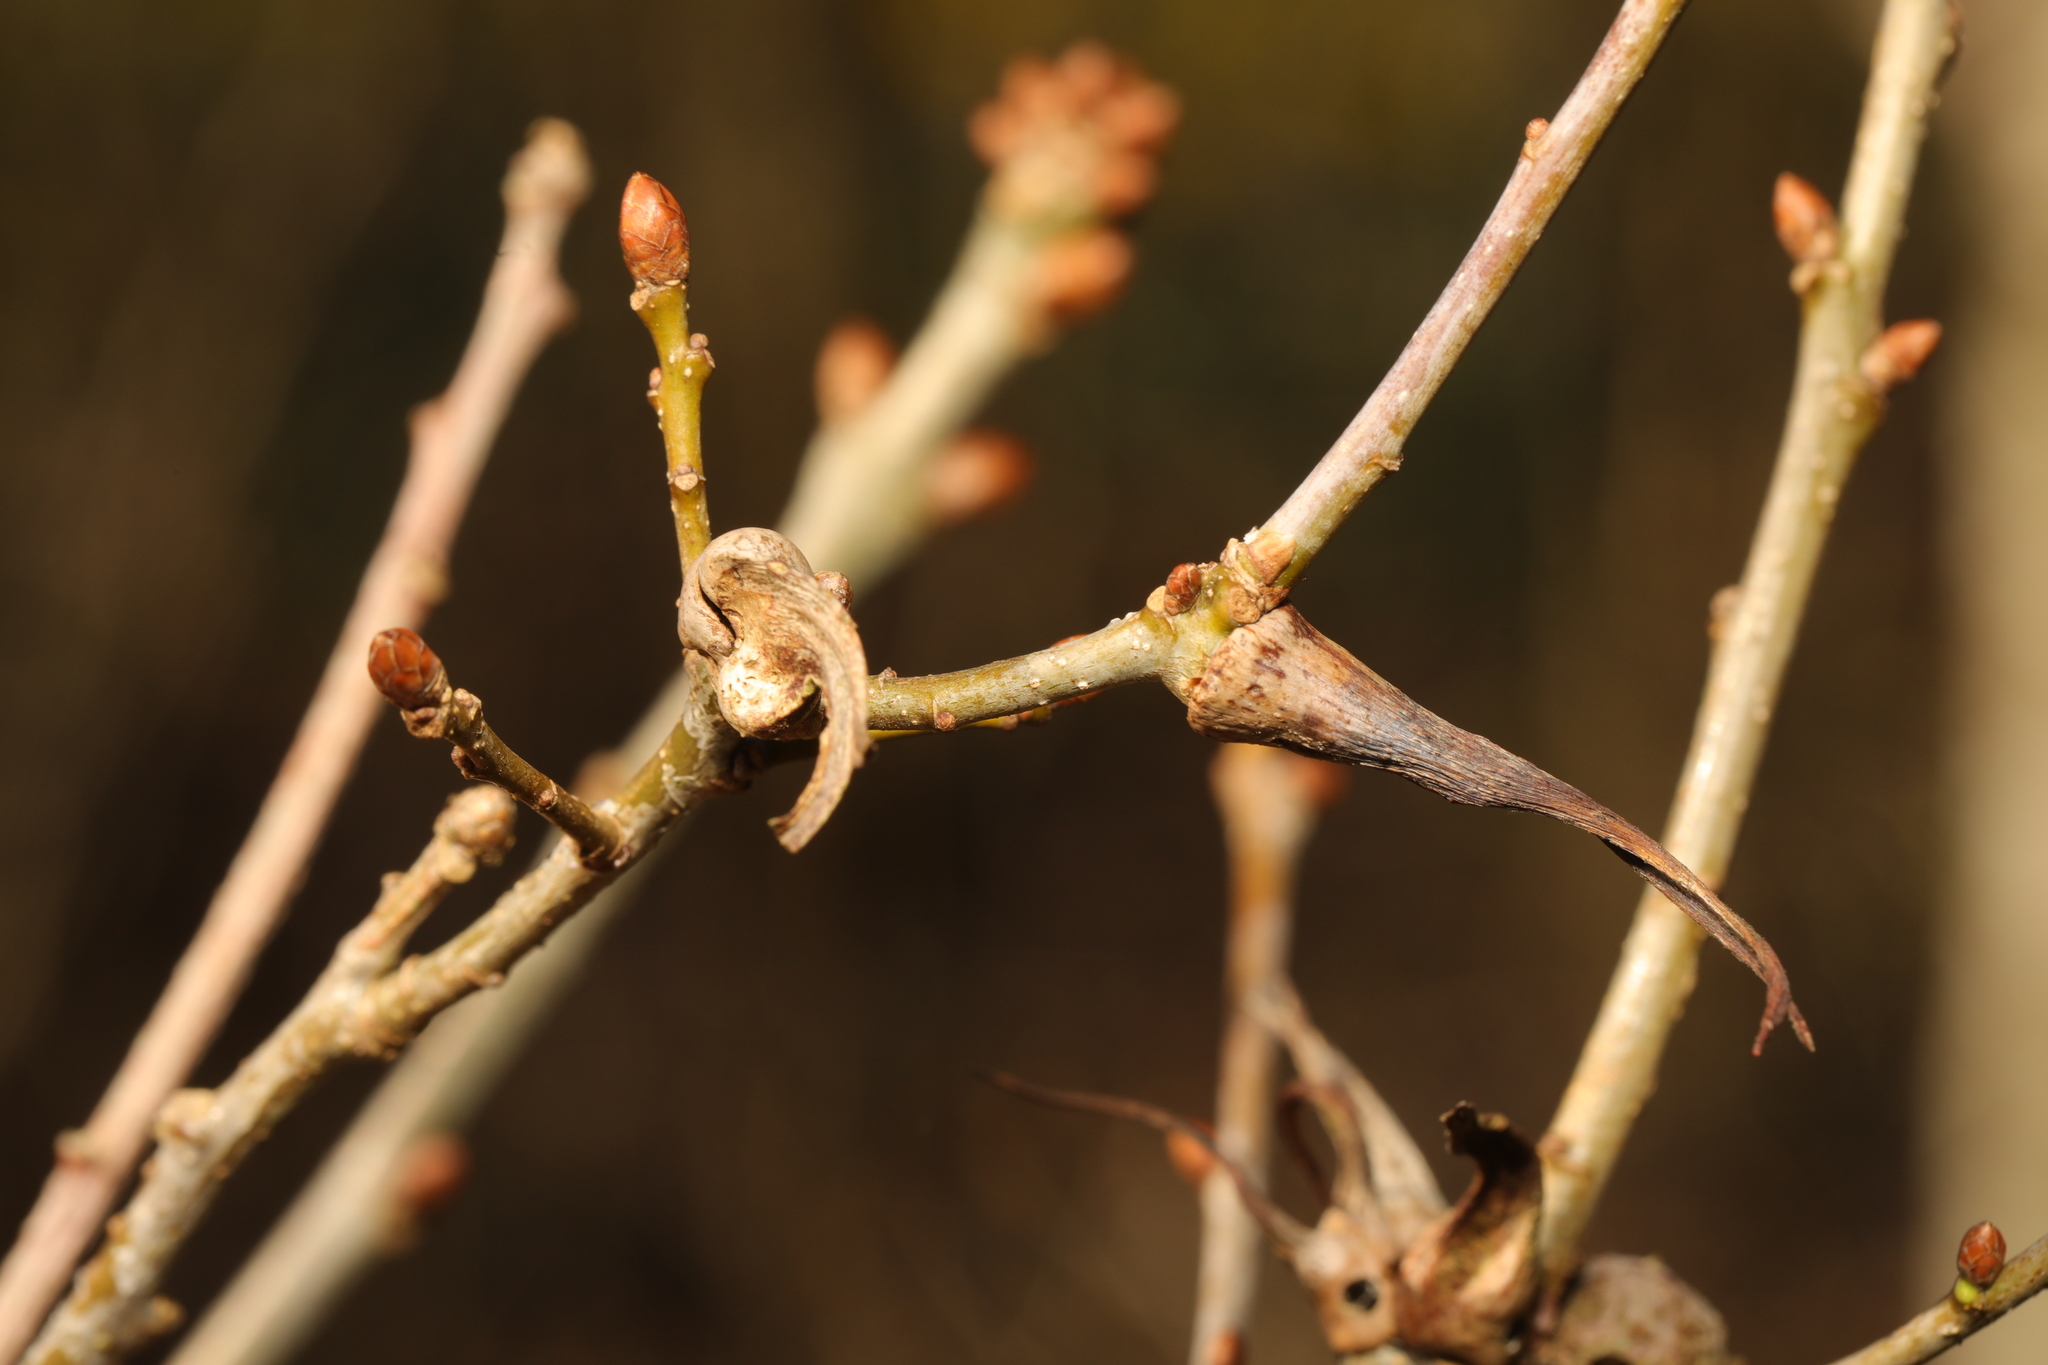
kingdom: Animalia
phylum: Arthropoda
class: Insecta
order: Hymenoptera
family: Cynipidae
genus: Andricus
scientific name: Andricus aries
